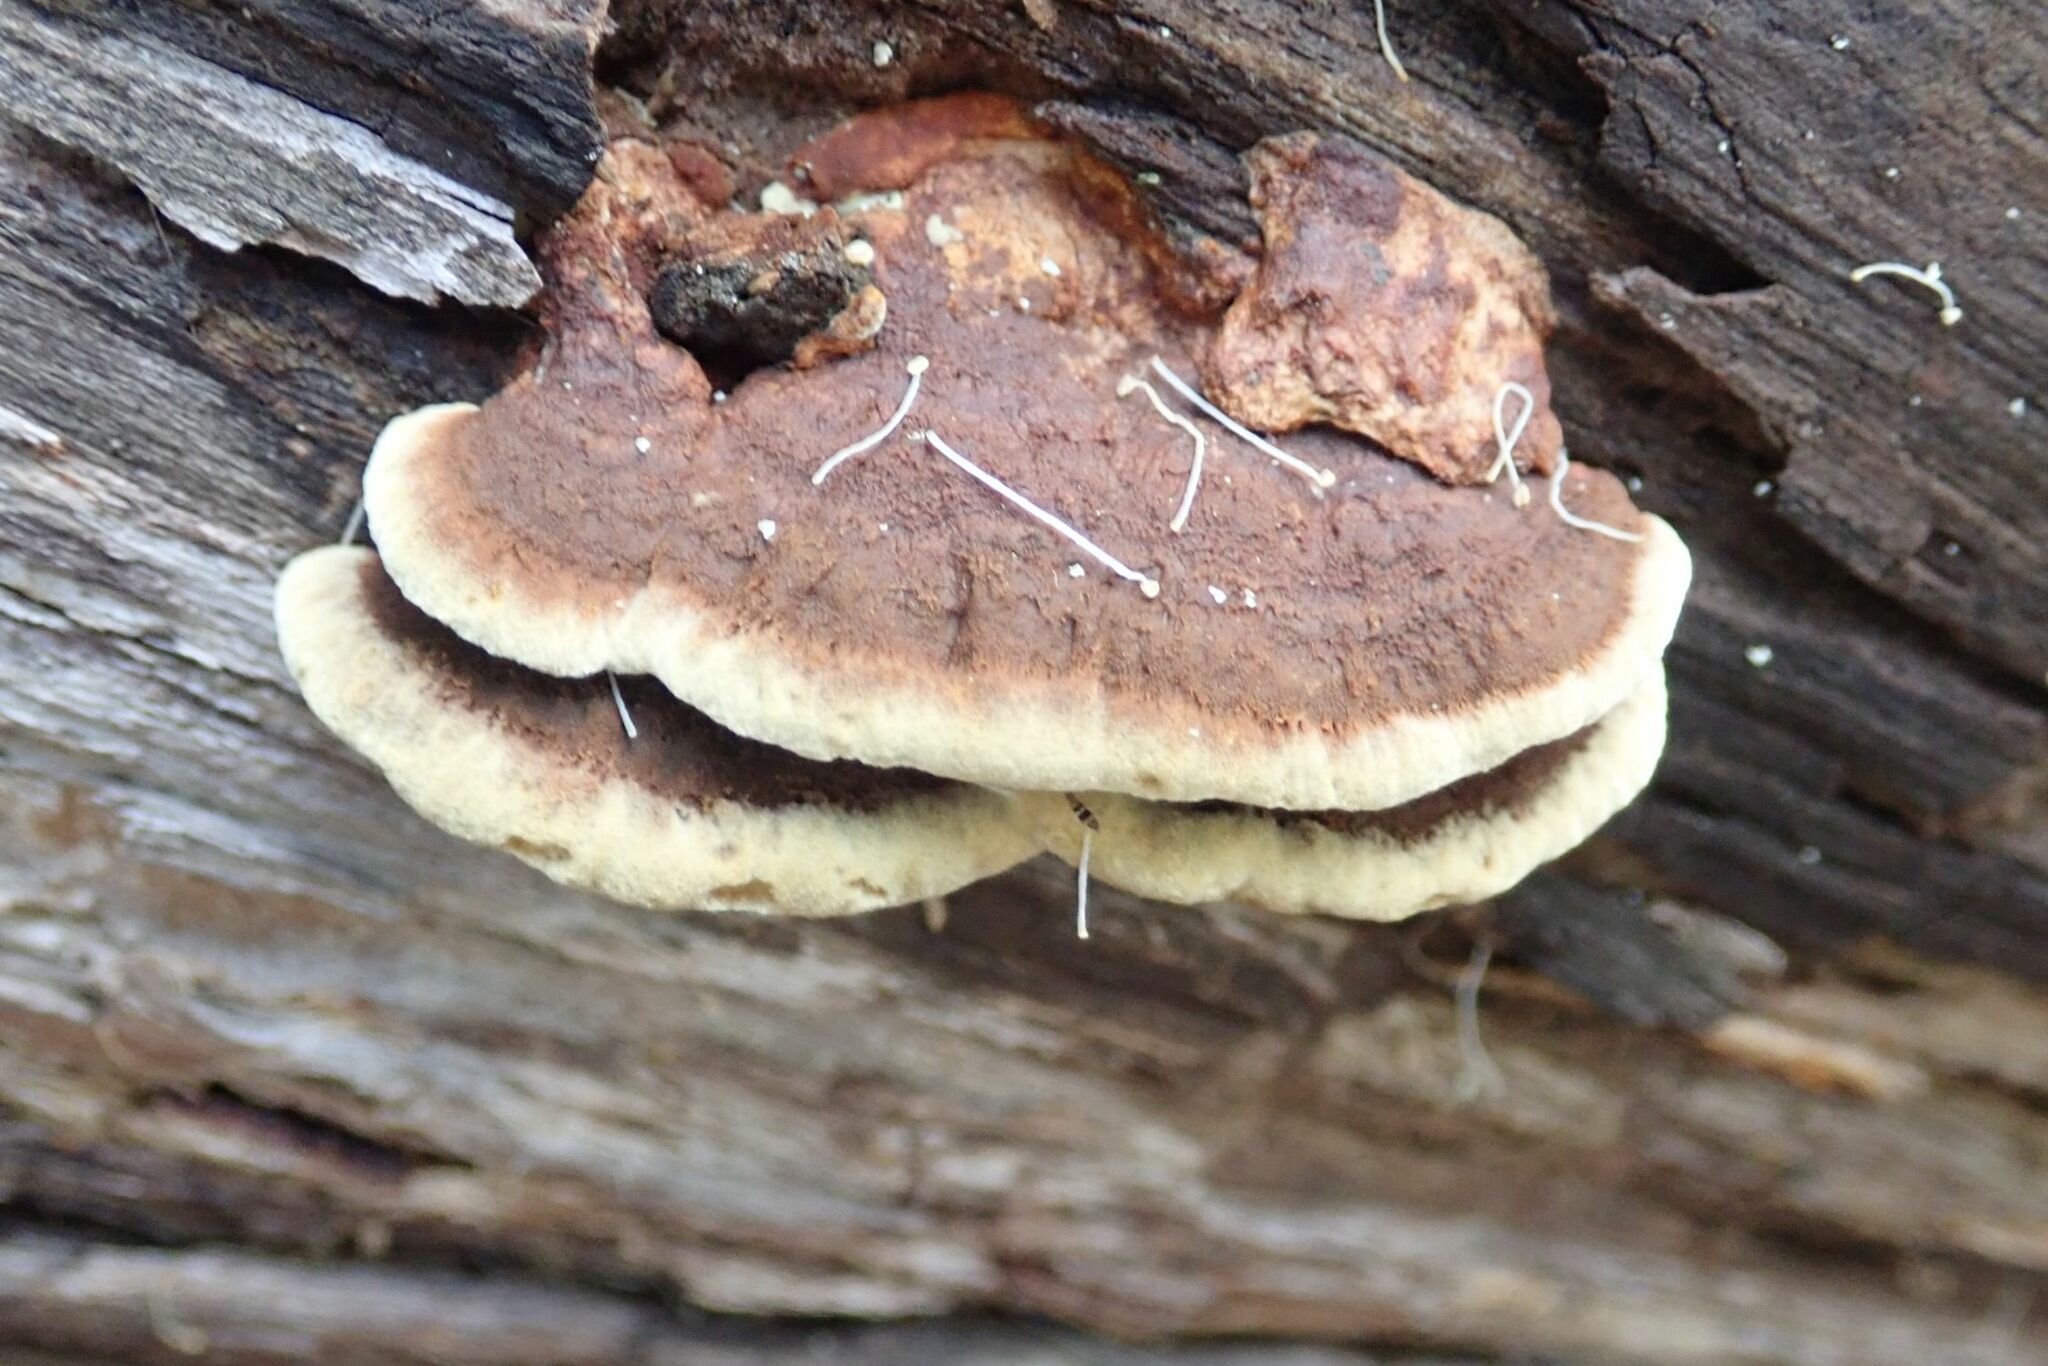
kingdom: Fungi
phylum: Basidiomycota
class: Agaricomycetes
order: Hymenochaetales
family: Hymenochaetaceae
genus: Phellinus
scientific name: Phellinus gilvus
